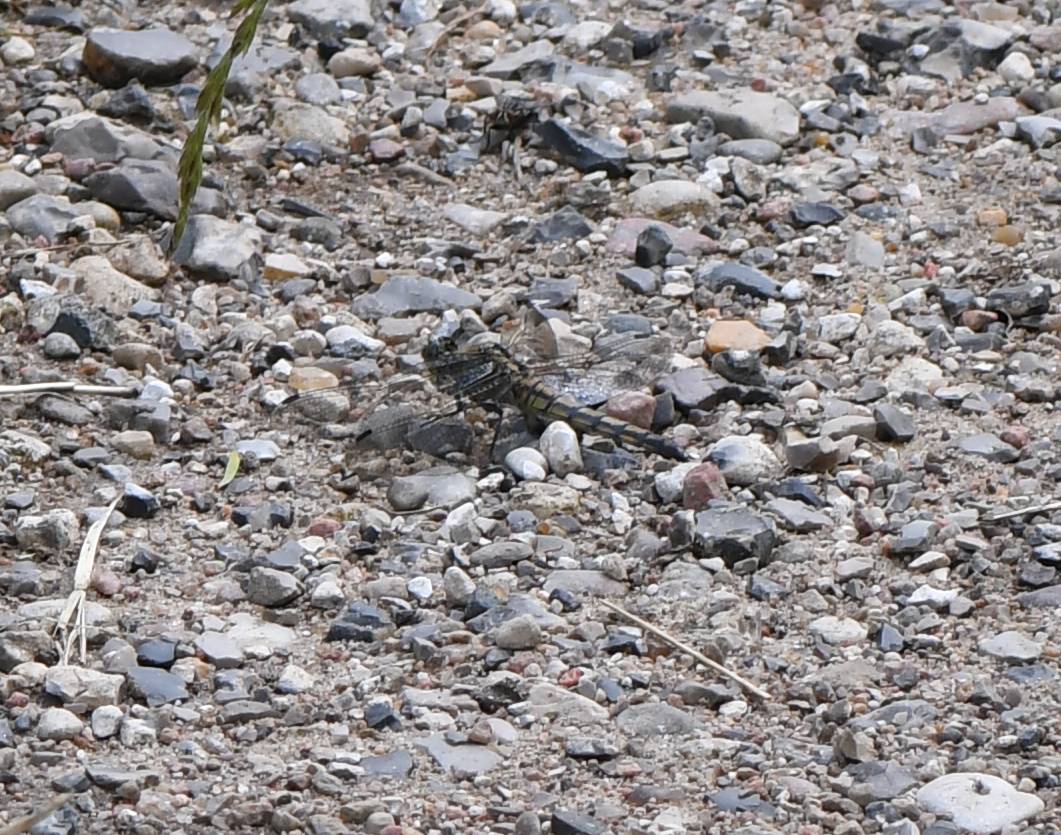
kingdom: Animalia
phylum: Arthropoda
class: Insecta
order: Odonata
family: Libellulidae
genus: Orthetrum
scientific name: Orthetrum cancellatum
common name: Black-tailed skimmer
